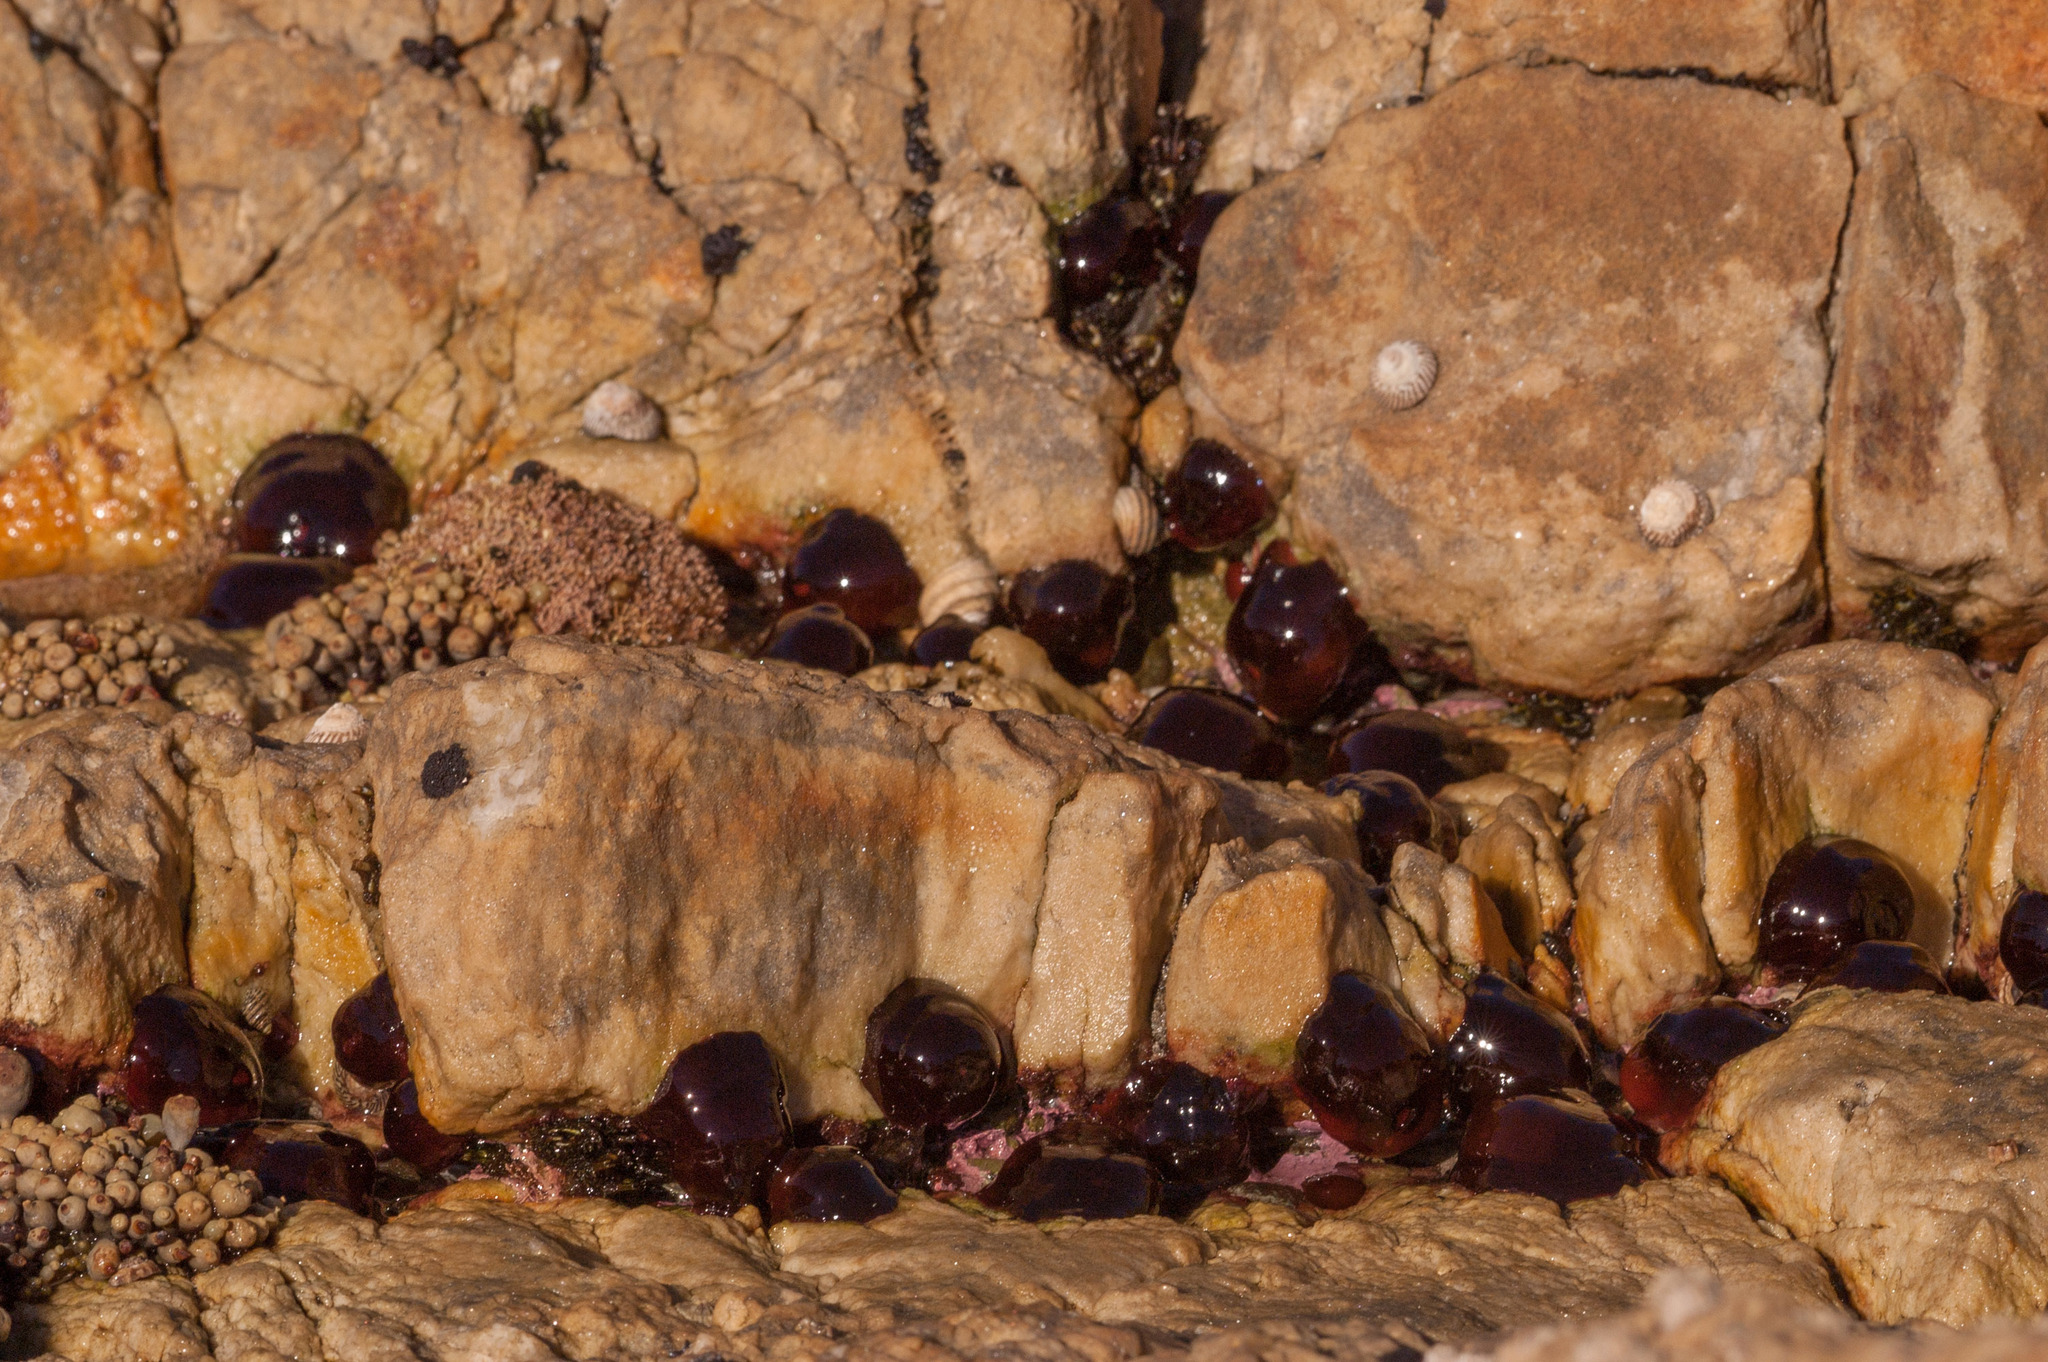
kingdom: Animalia
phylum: Cnidaria
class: Anthozoa
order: Actiniaria
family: Actiniidae
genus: Actinia
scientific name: Actinia tenebrosa
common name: Waratah anemone
